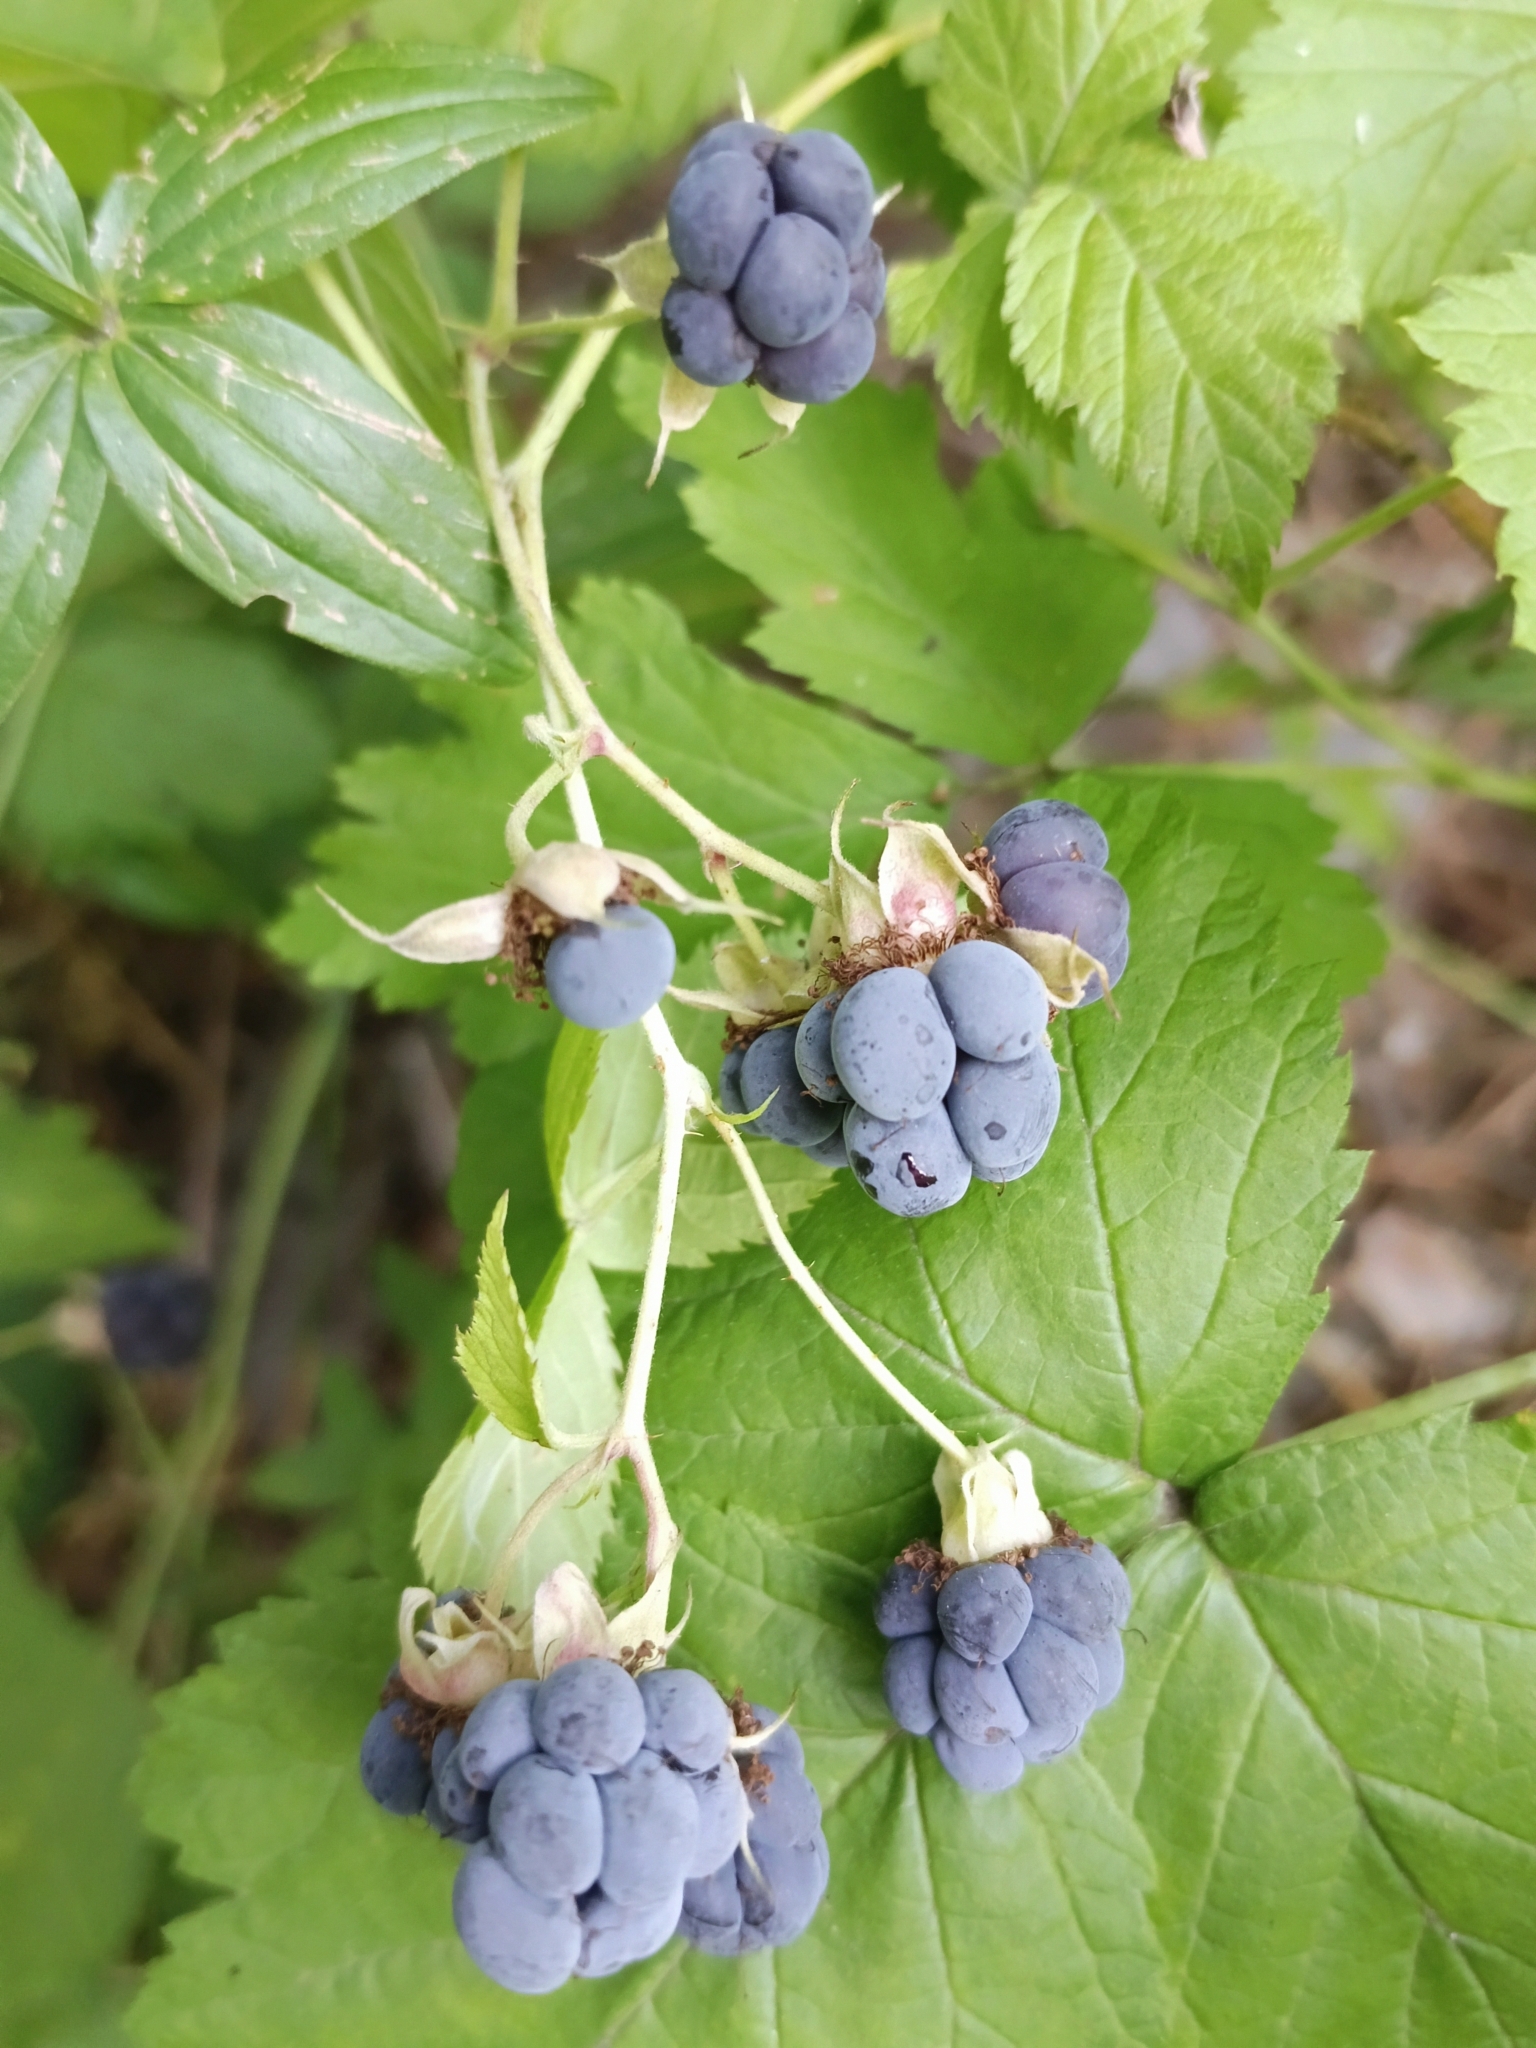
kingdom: Plantae
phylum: Tracheophyta
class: Magnoliopsida
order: Rosales
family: Rosaceae
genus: Rubus
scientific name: Rubus caesius
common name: Dewberry
